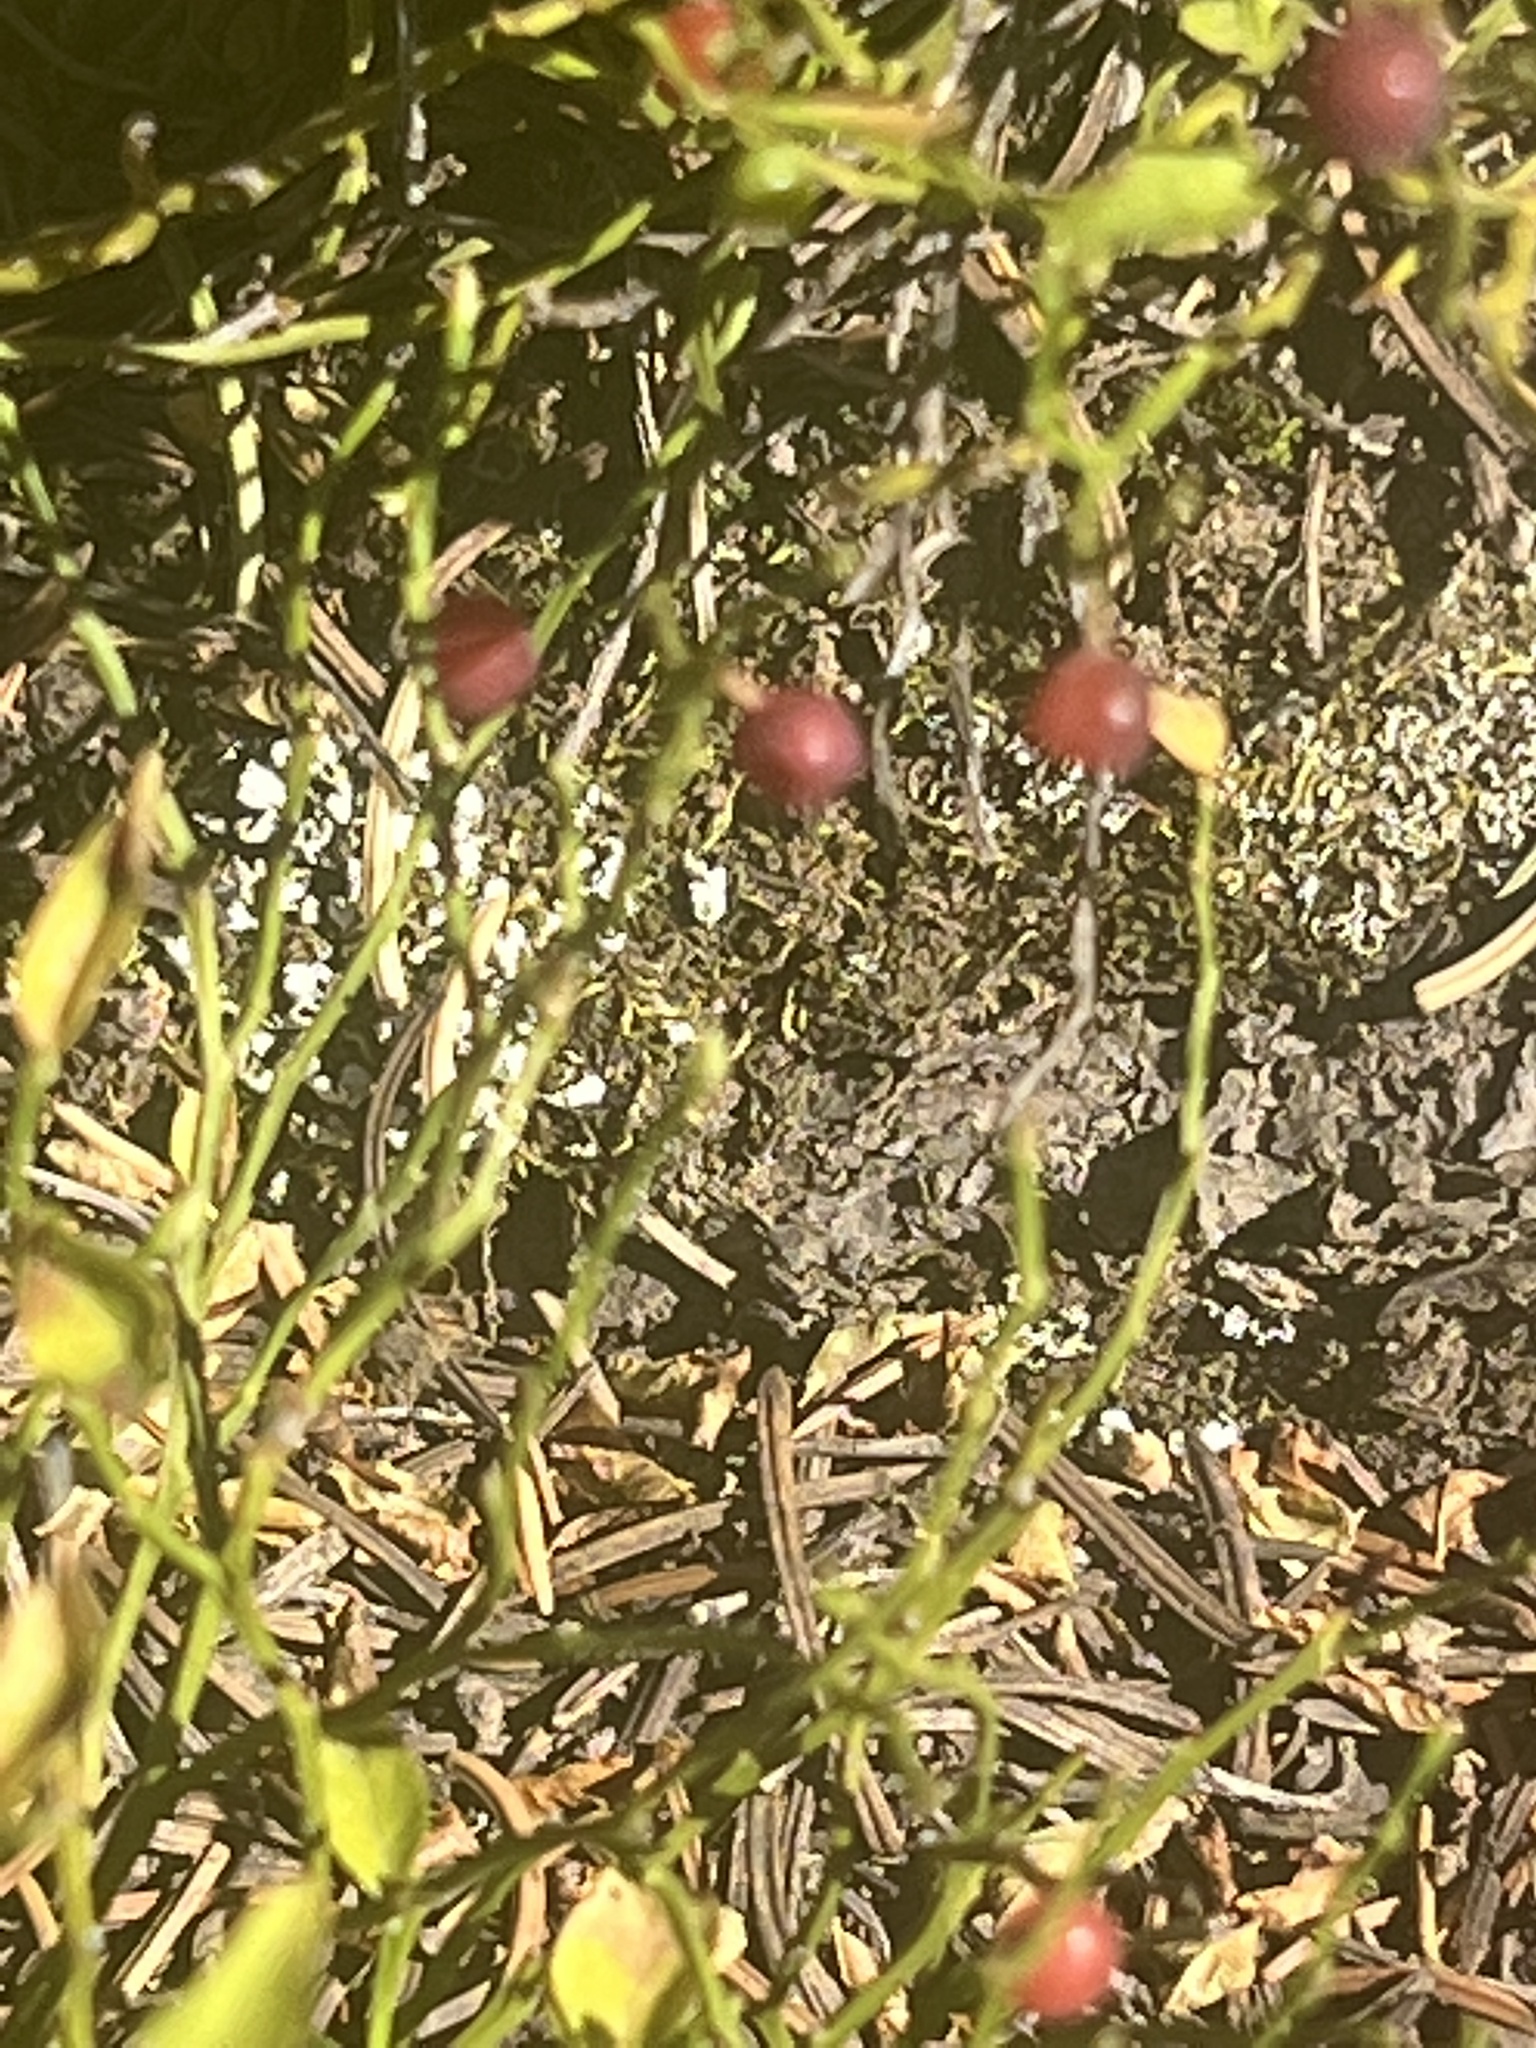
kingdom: Plantae
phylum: Tracheophyta
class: Magnoliopsida
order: Ericales
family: Ericaceae
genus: Vaccinium
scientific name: Vaccinium scoparium
